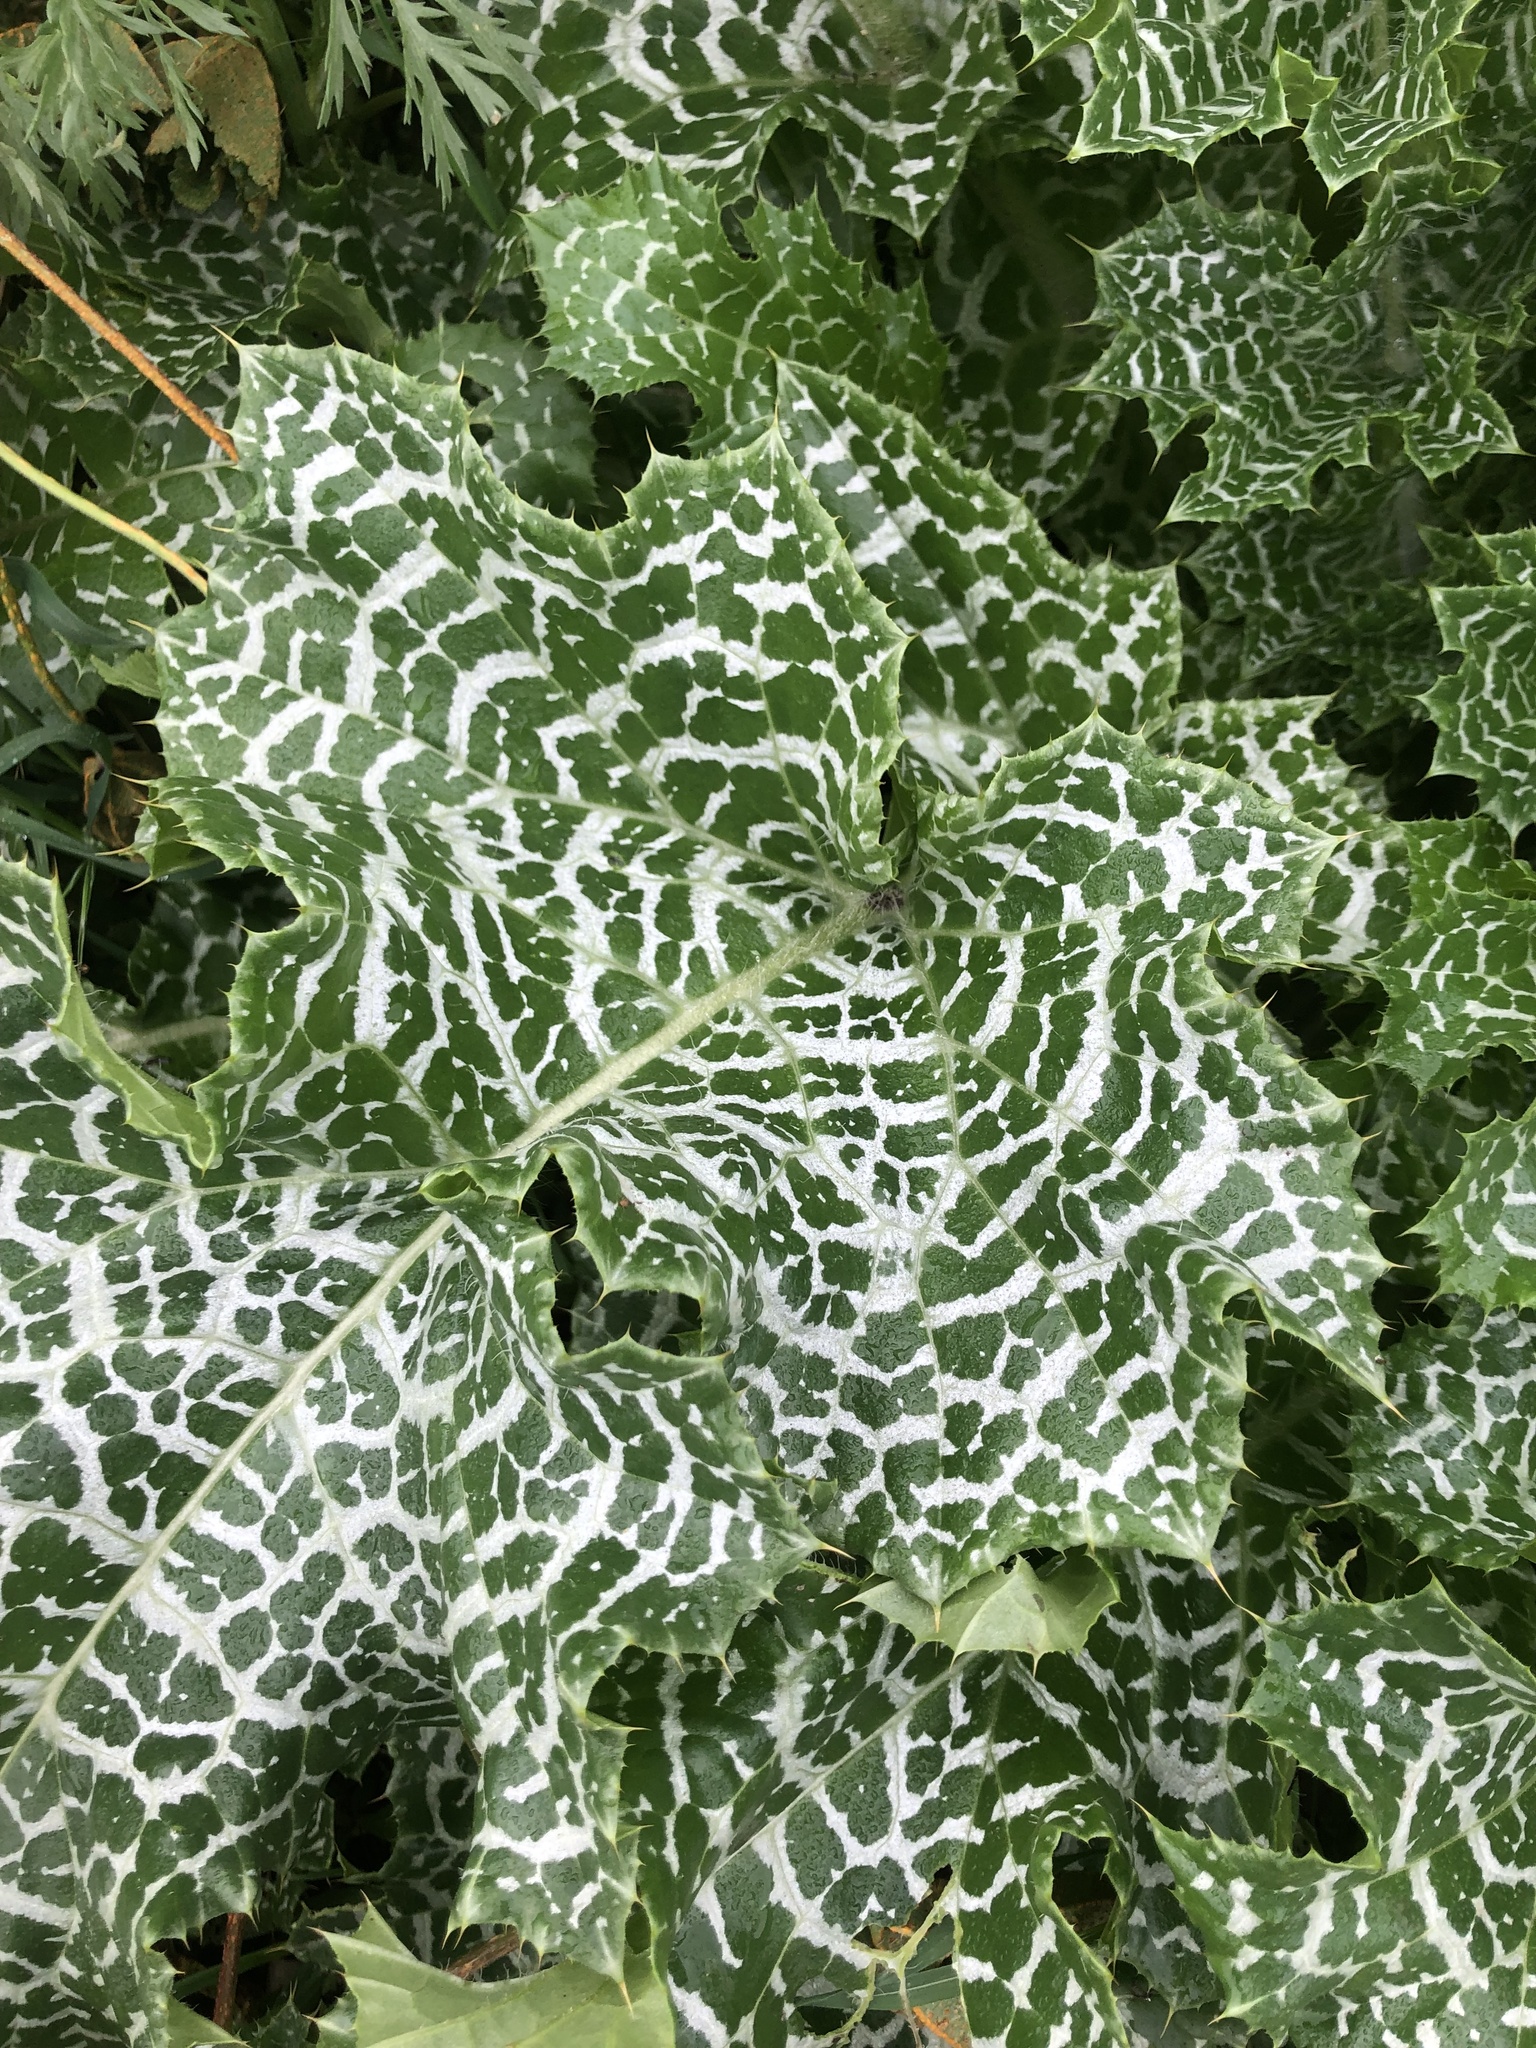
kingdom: Plantae
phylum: Tracheophyta
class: Magnoliopsida
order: Asterales
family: Asteraceae
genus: Silybum
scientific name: Silybum marianum
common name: Milk thistle
